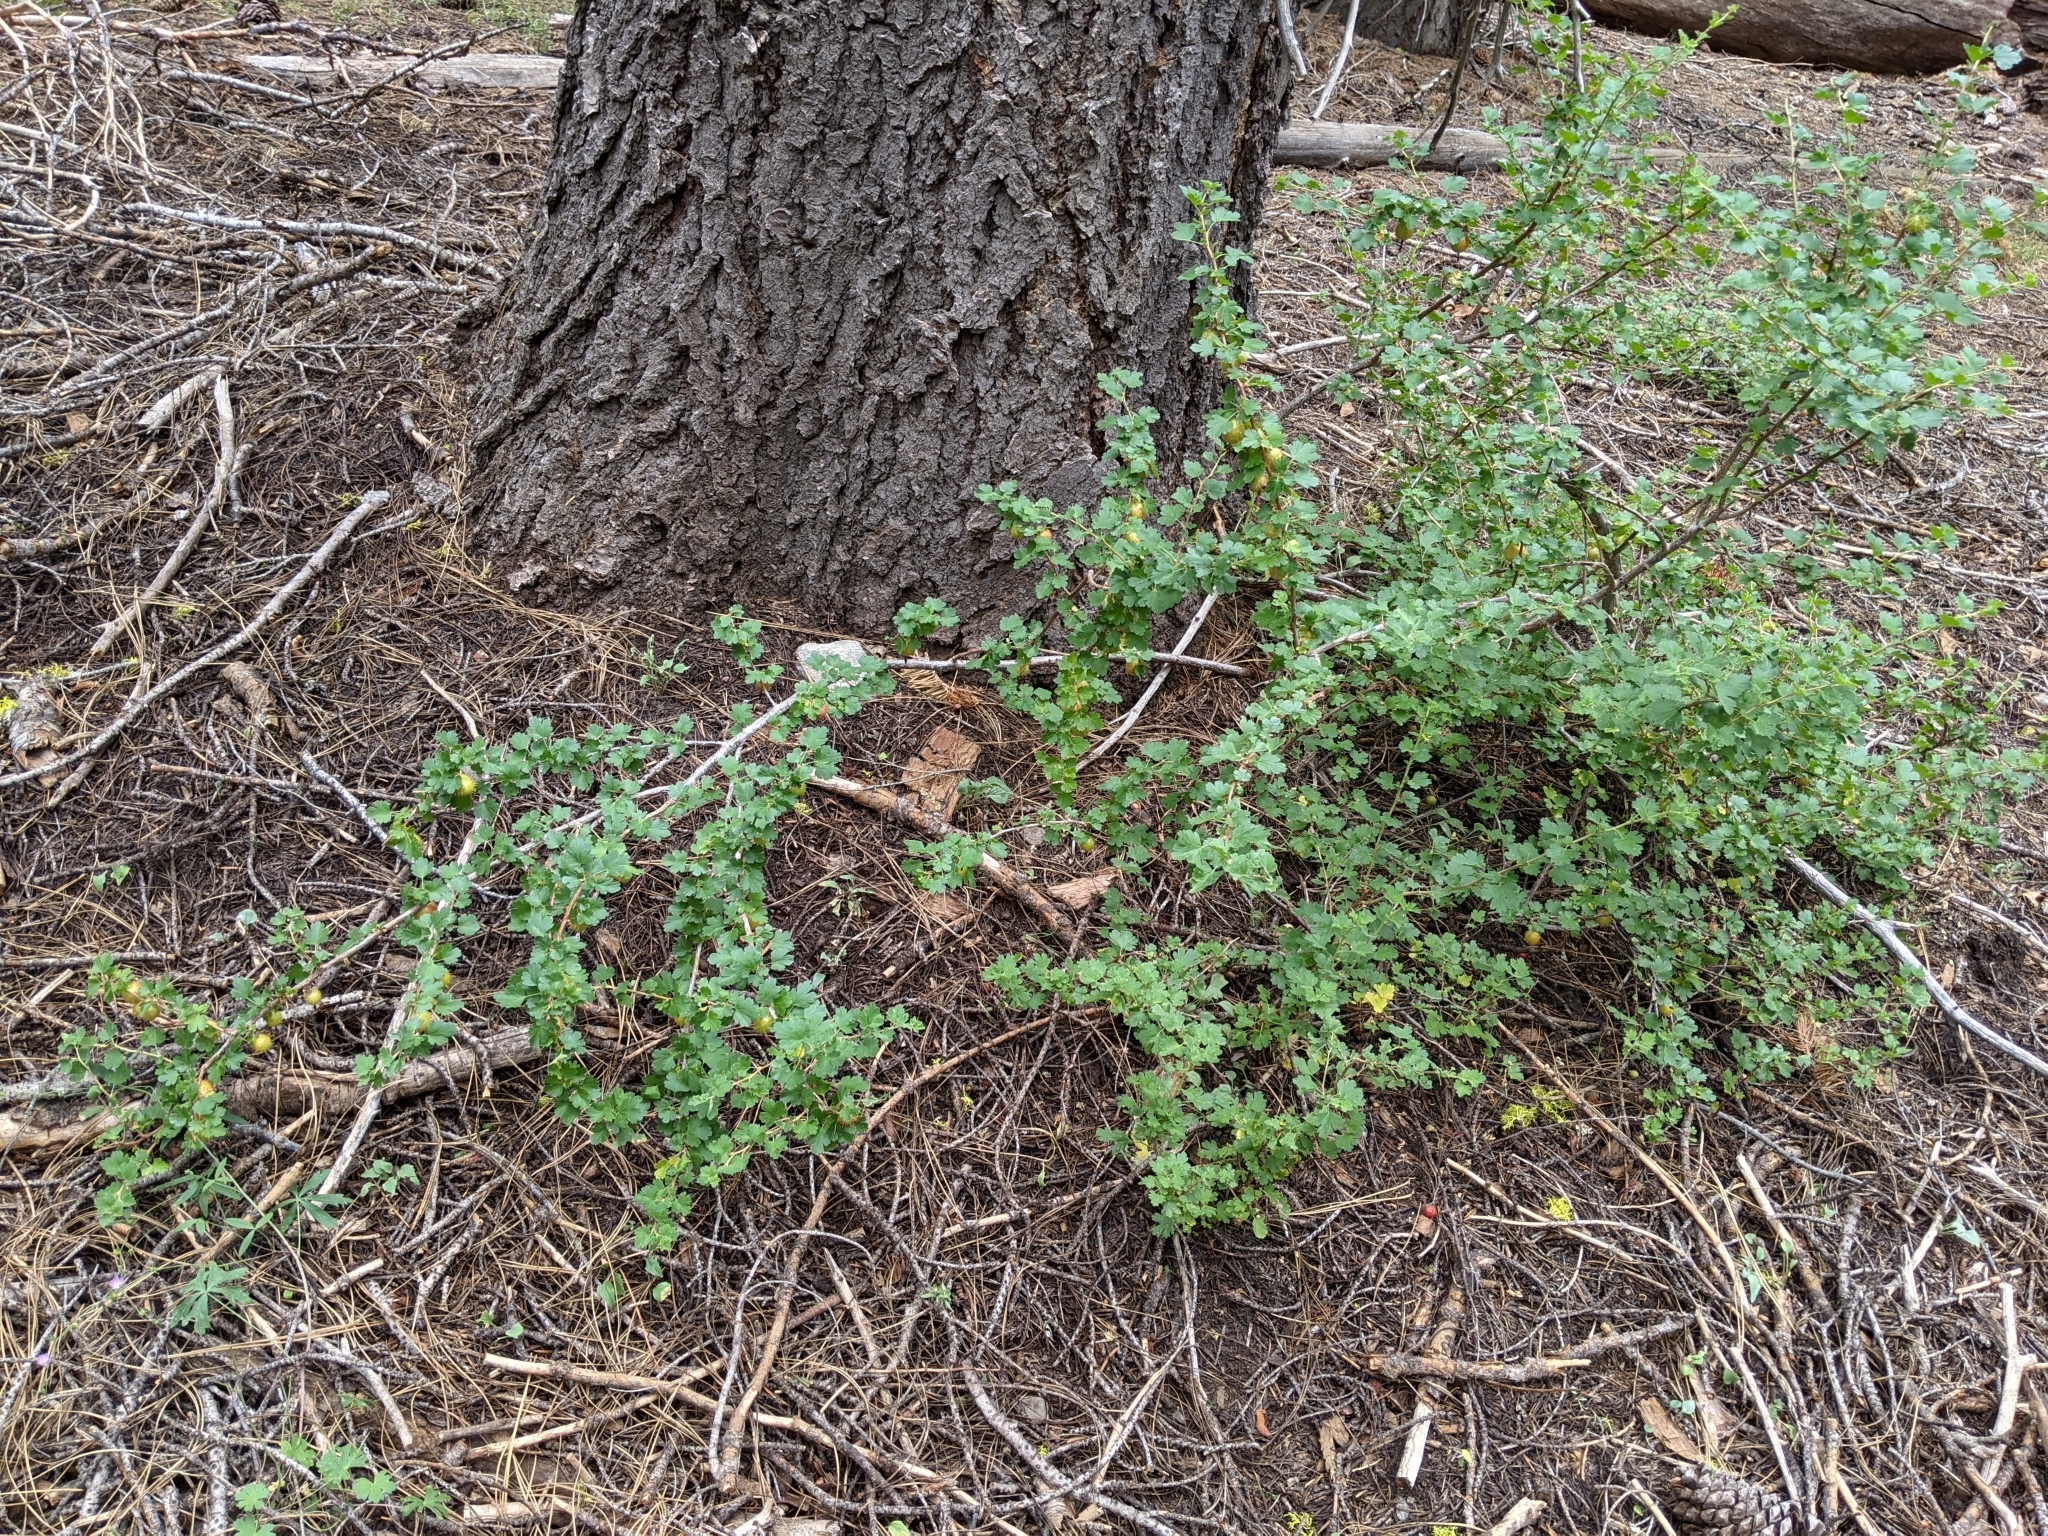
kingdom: Plantae
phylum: Tracheophyta
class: Magnoliopsida
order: Saxifragales
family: Grossulariaceae
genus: Ribes
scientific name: Ribes roezlii
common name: Sierra gooseberry
